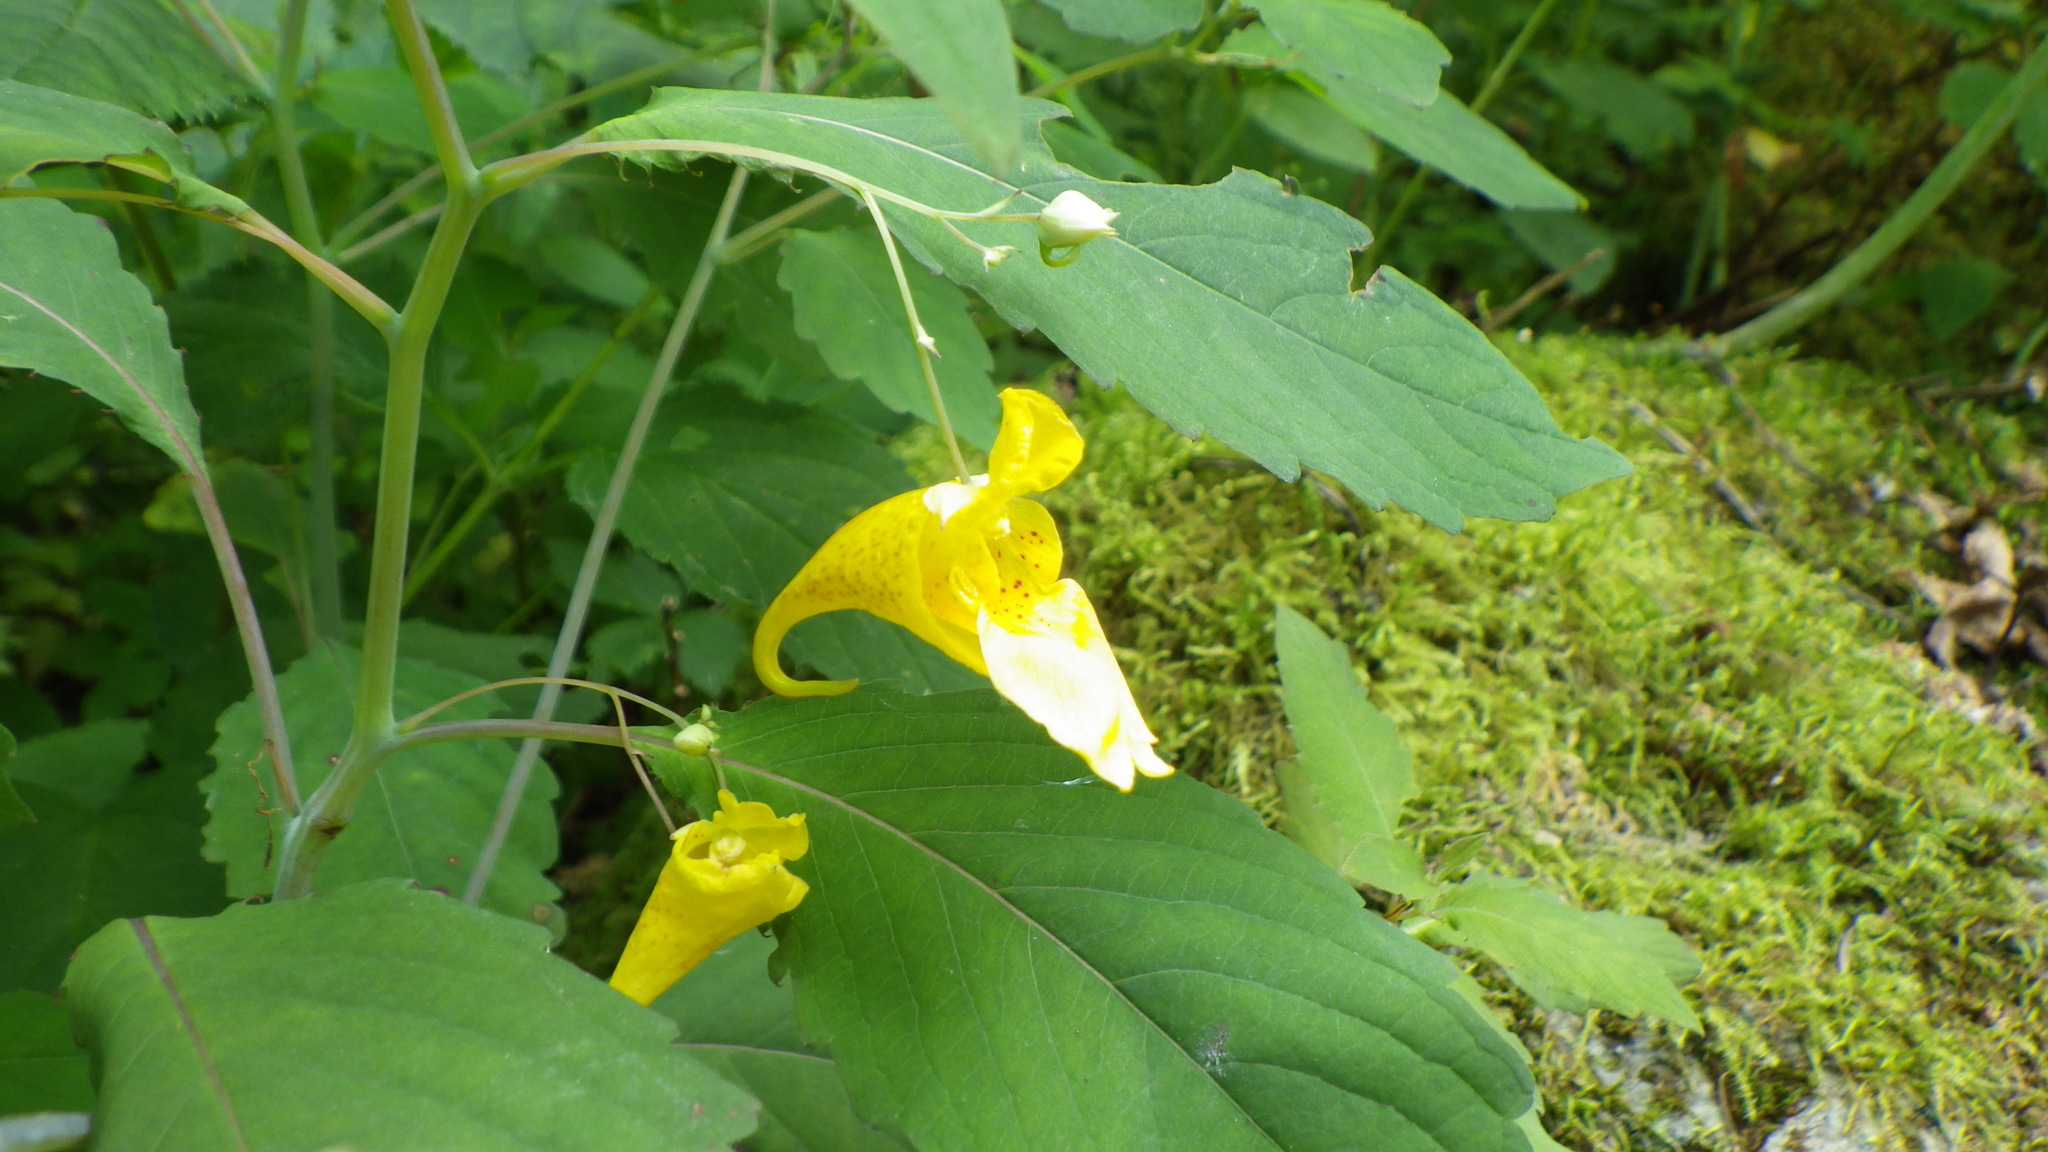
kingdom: Plantae
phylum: Tracheophyta
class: Magnoliopsida
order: Ericales
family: Balsaminaceae
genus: Impatiens
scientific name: Impatiens noli-tangere
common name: Touch-me-not balsam
